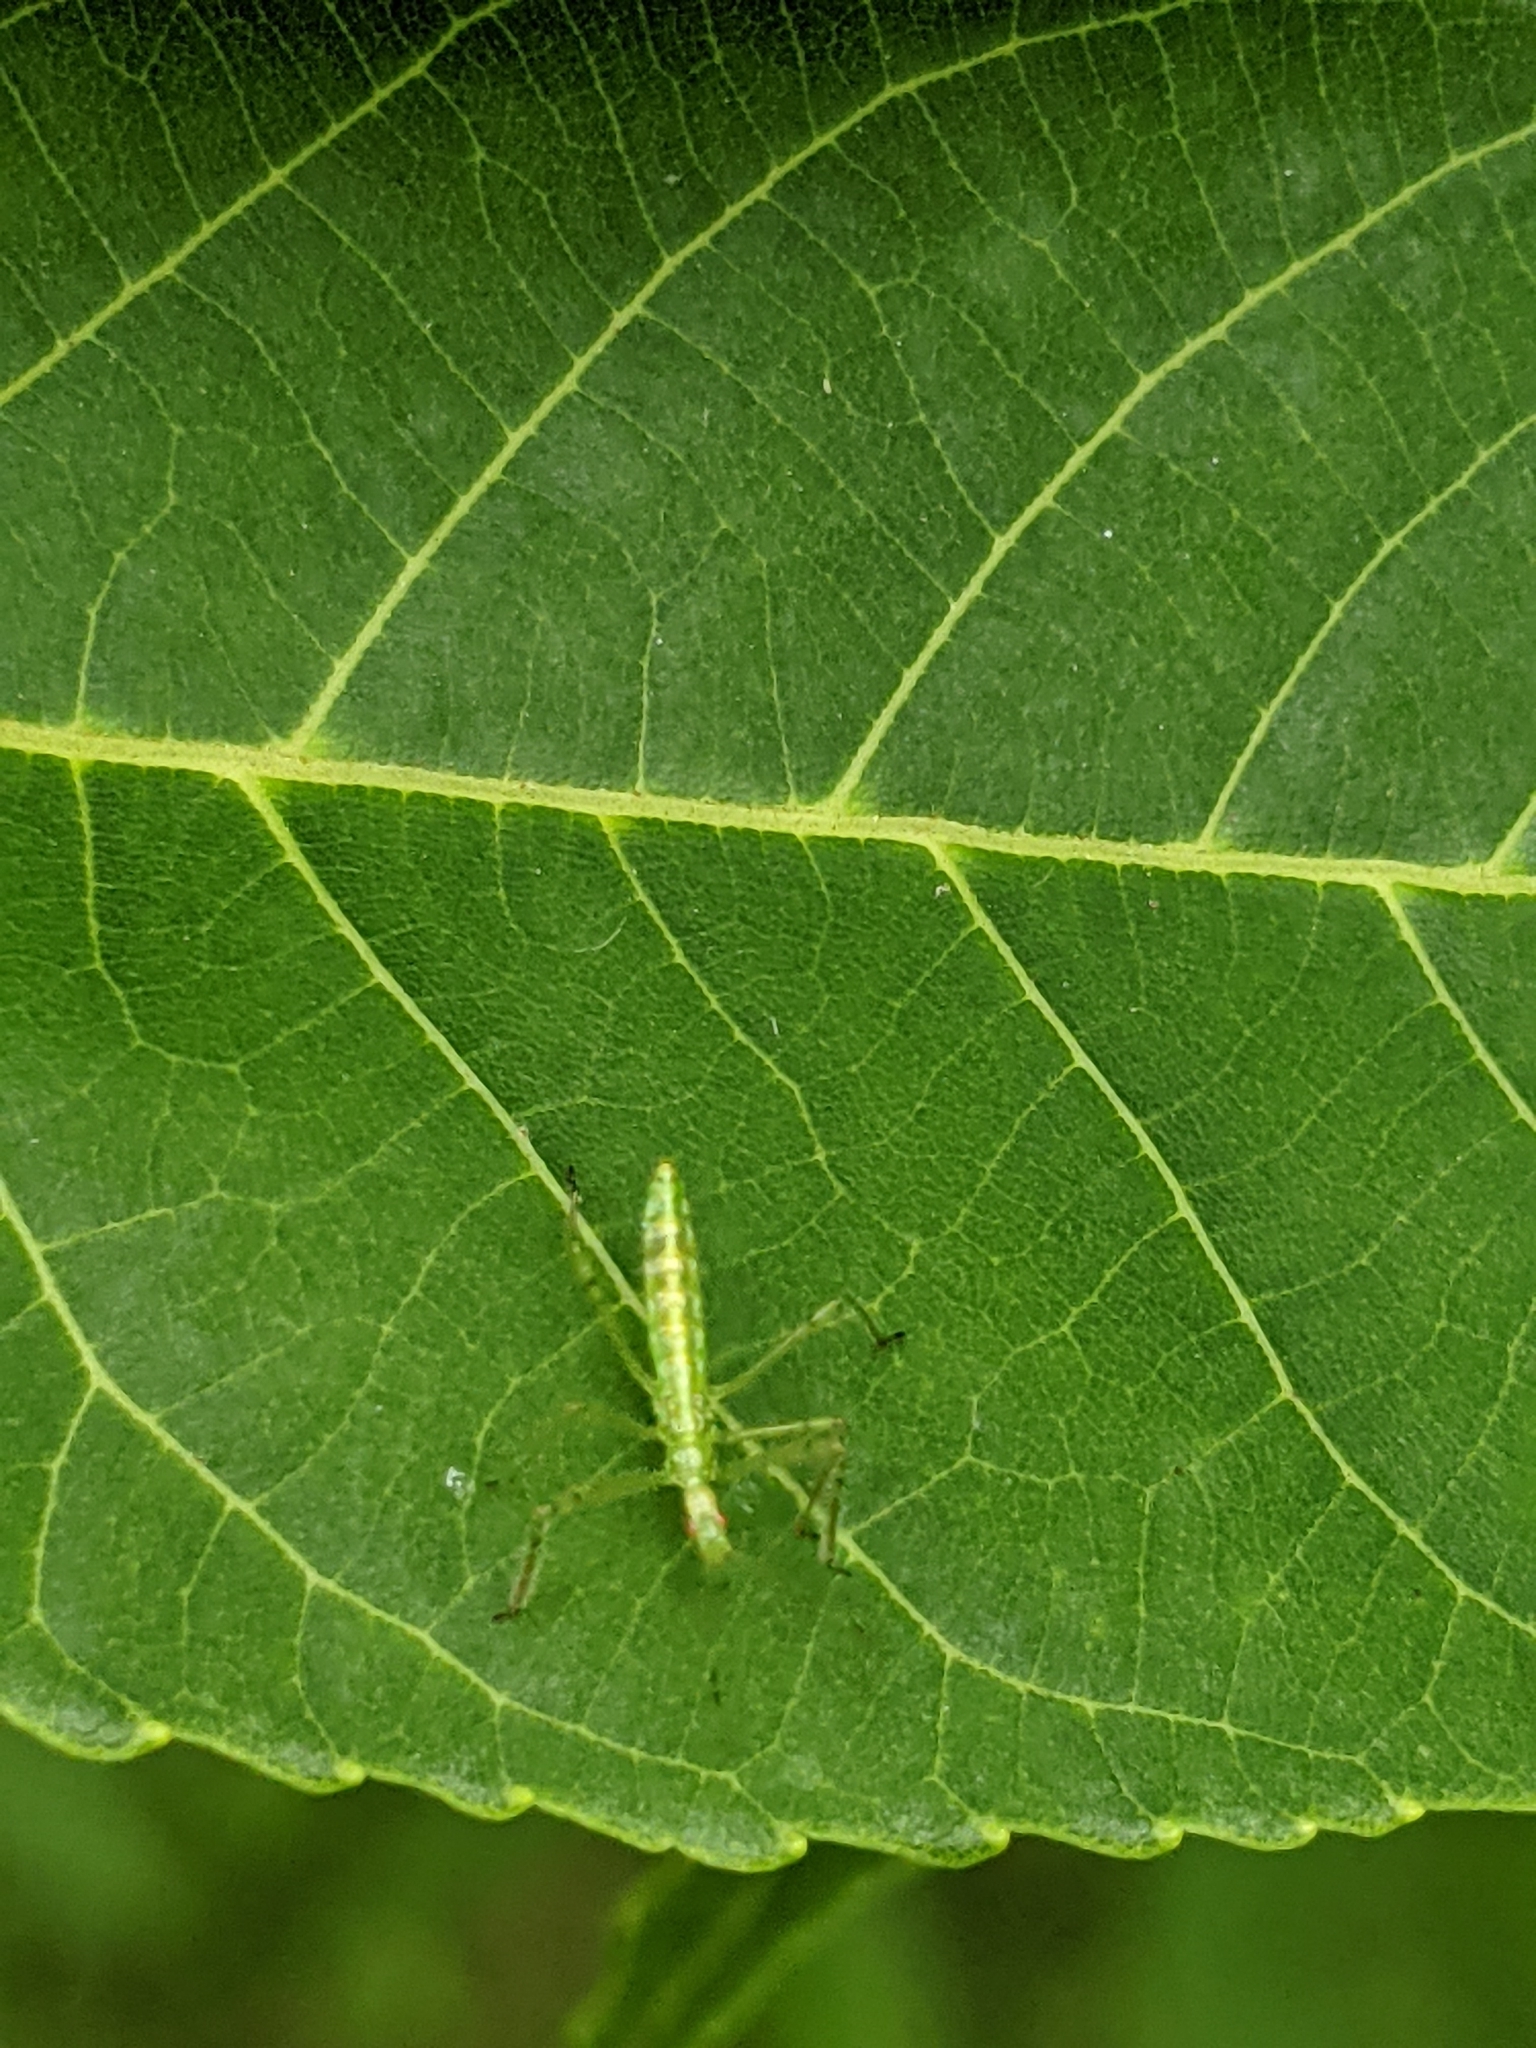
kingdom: Animalia
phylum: Arthropoda
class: Insecta
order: Hemiptera
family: Reduviidae
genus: Zelus
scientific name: Zelus luridus
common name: Pale green assassin bug
